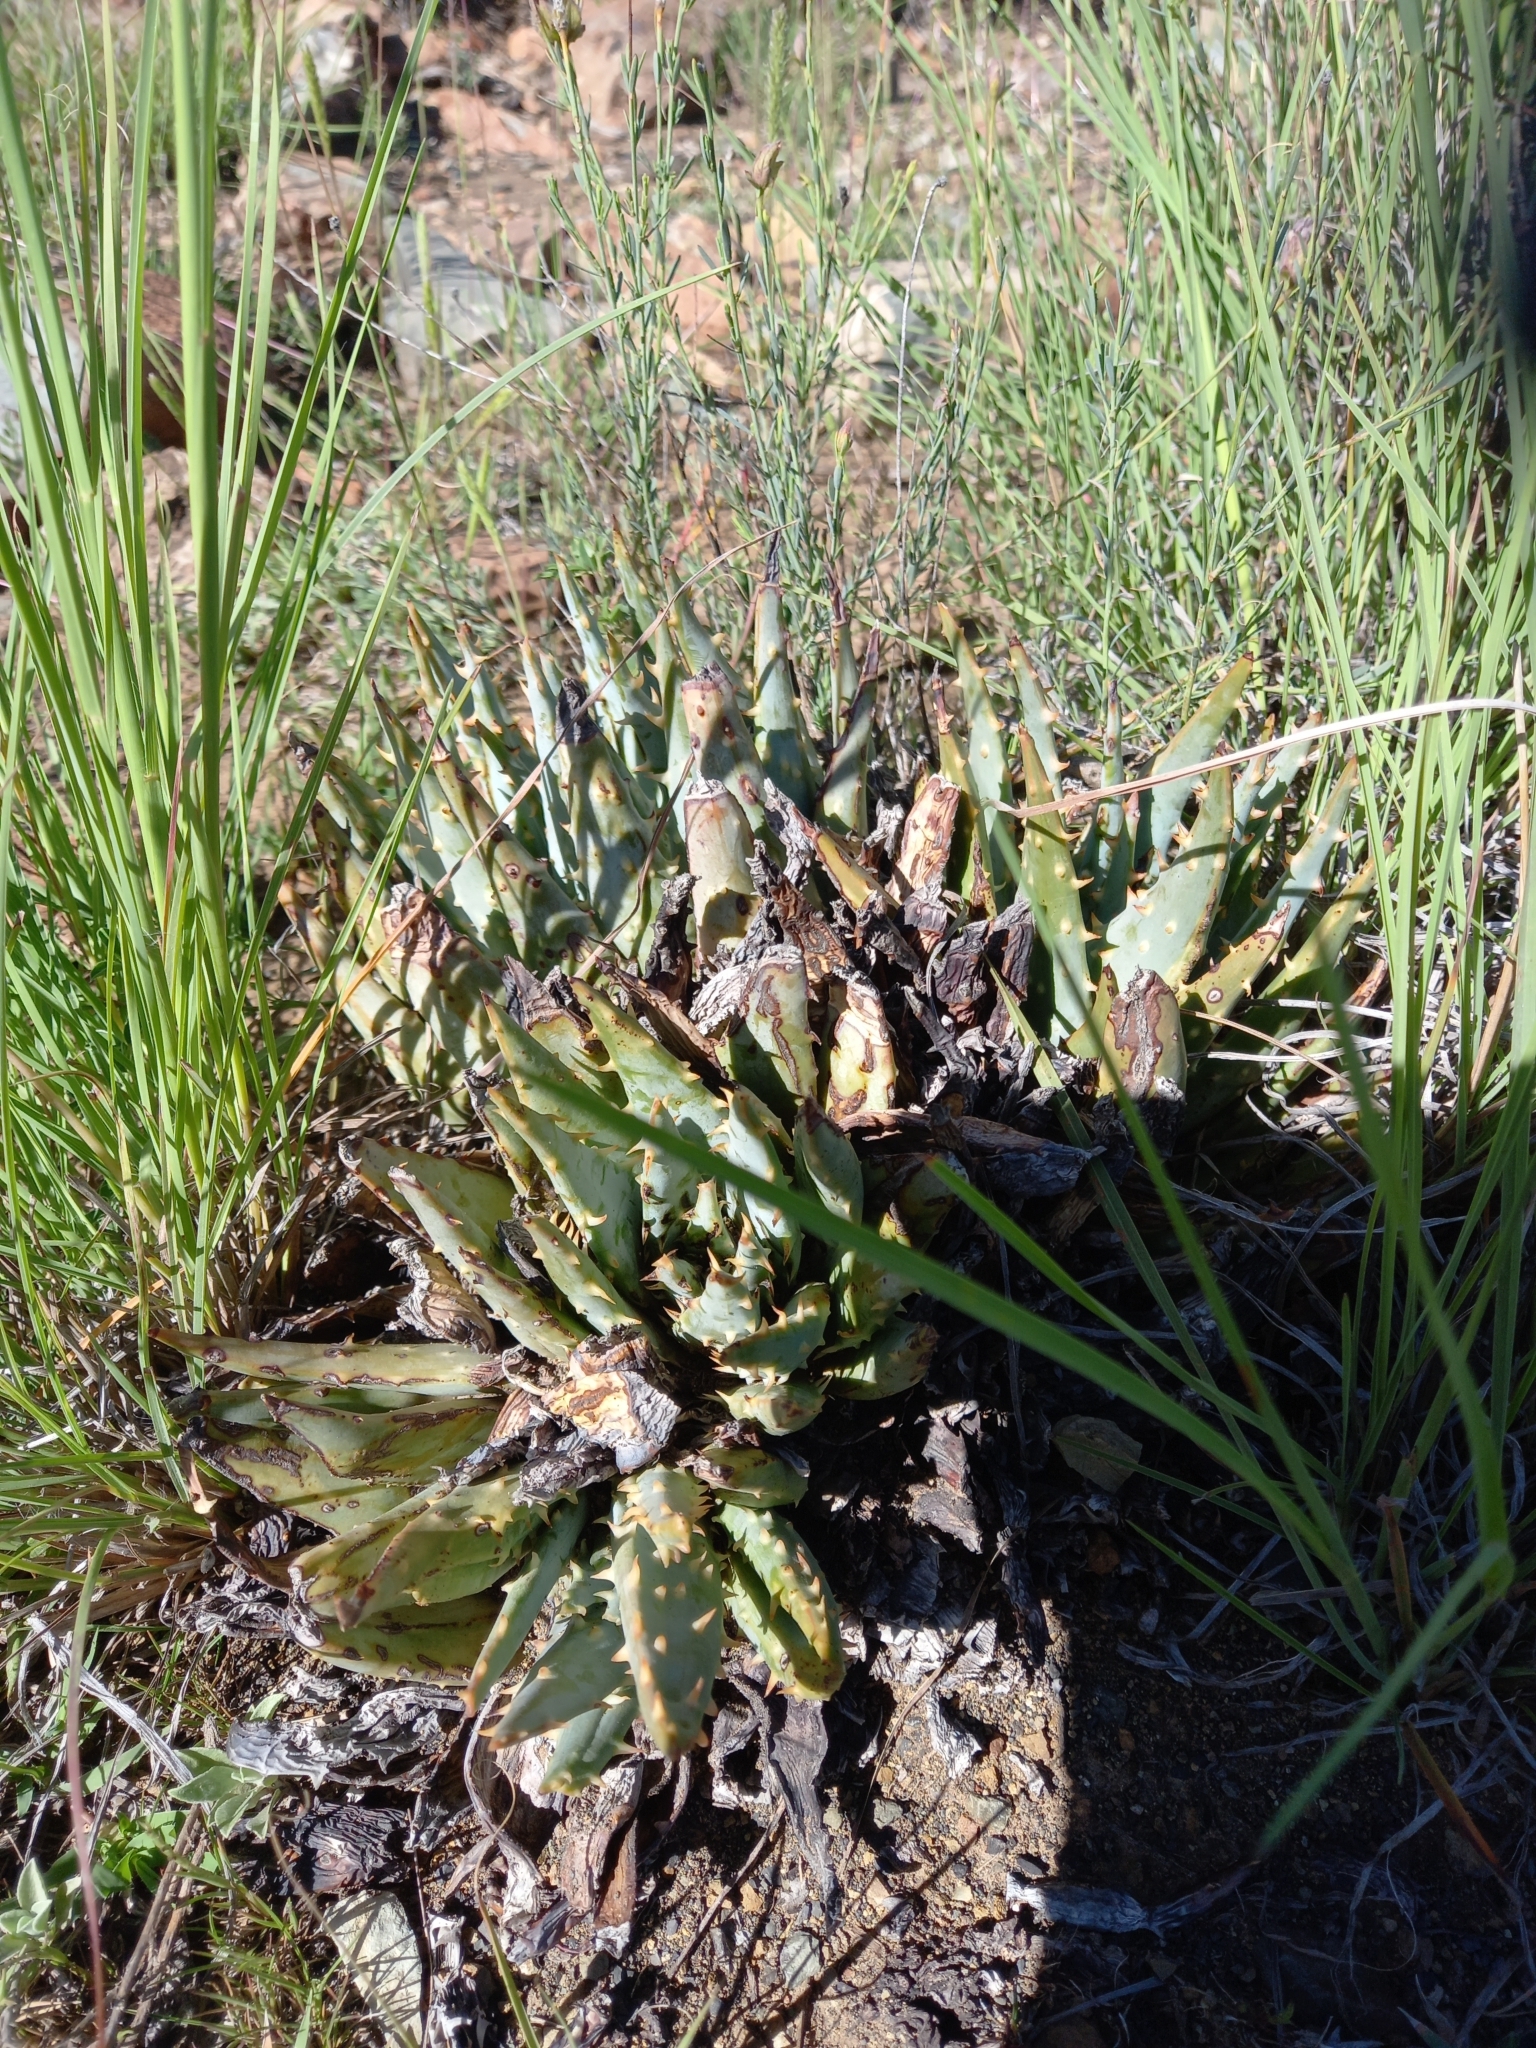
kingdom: Plantae
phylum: Tracheophyta
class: Liliopsida
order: Asparagales
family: Asphodelaceae
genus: Aloe
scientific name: Aloe longistyla
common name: Karoo aloe
